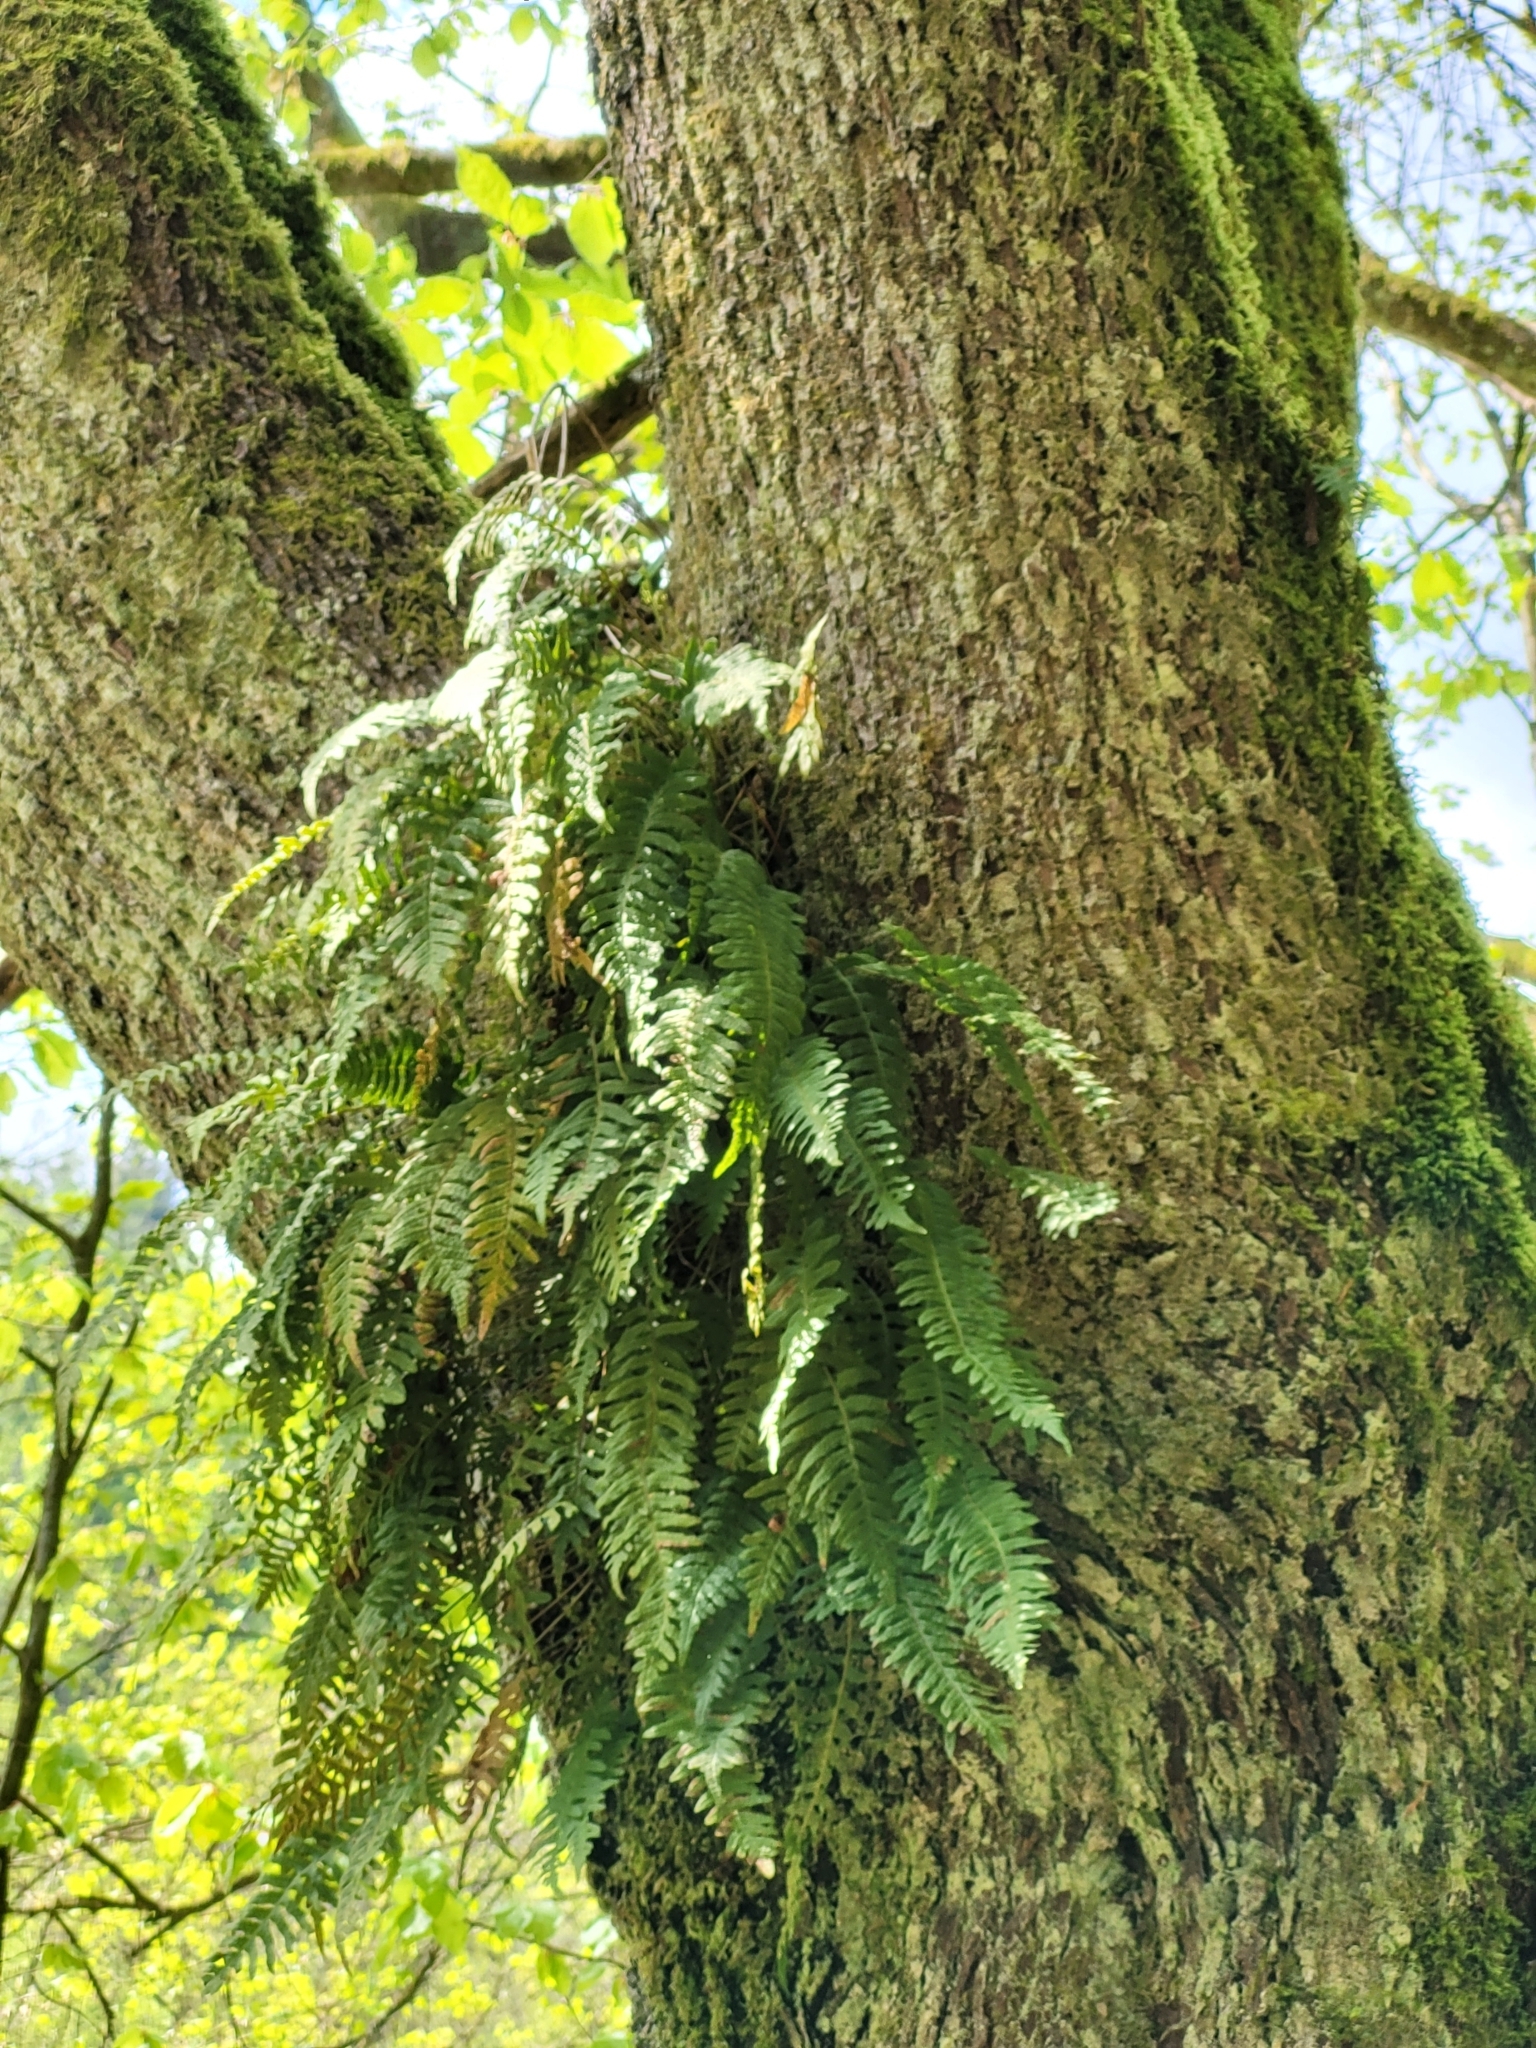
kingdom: Plantae
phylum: Tracheophyta
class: Polypodiopsida
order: Polypodiales
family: Polypodiaceae
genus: Polypodium
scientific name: Polypodium vulgare
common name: Common polypody
